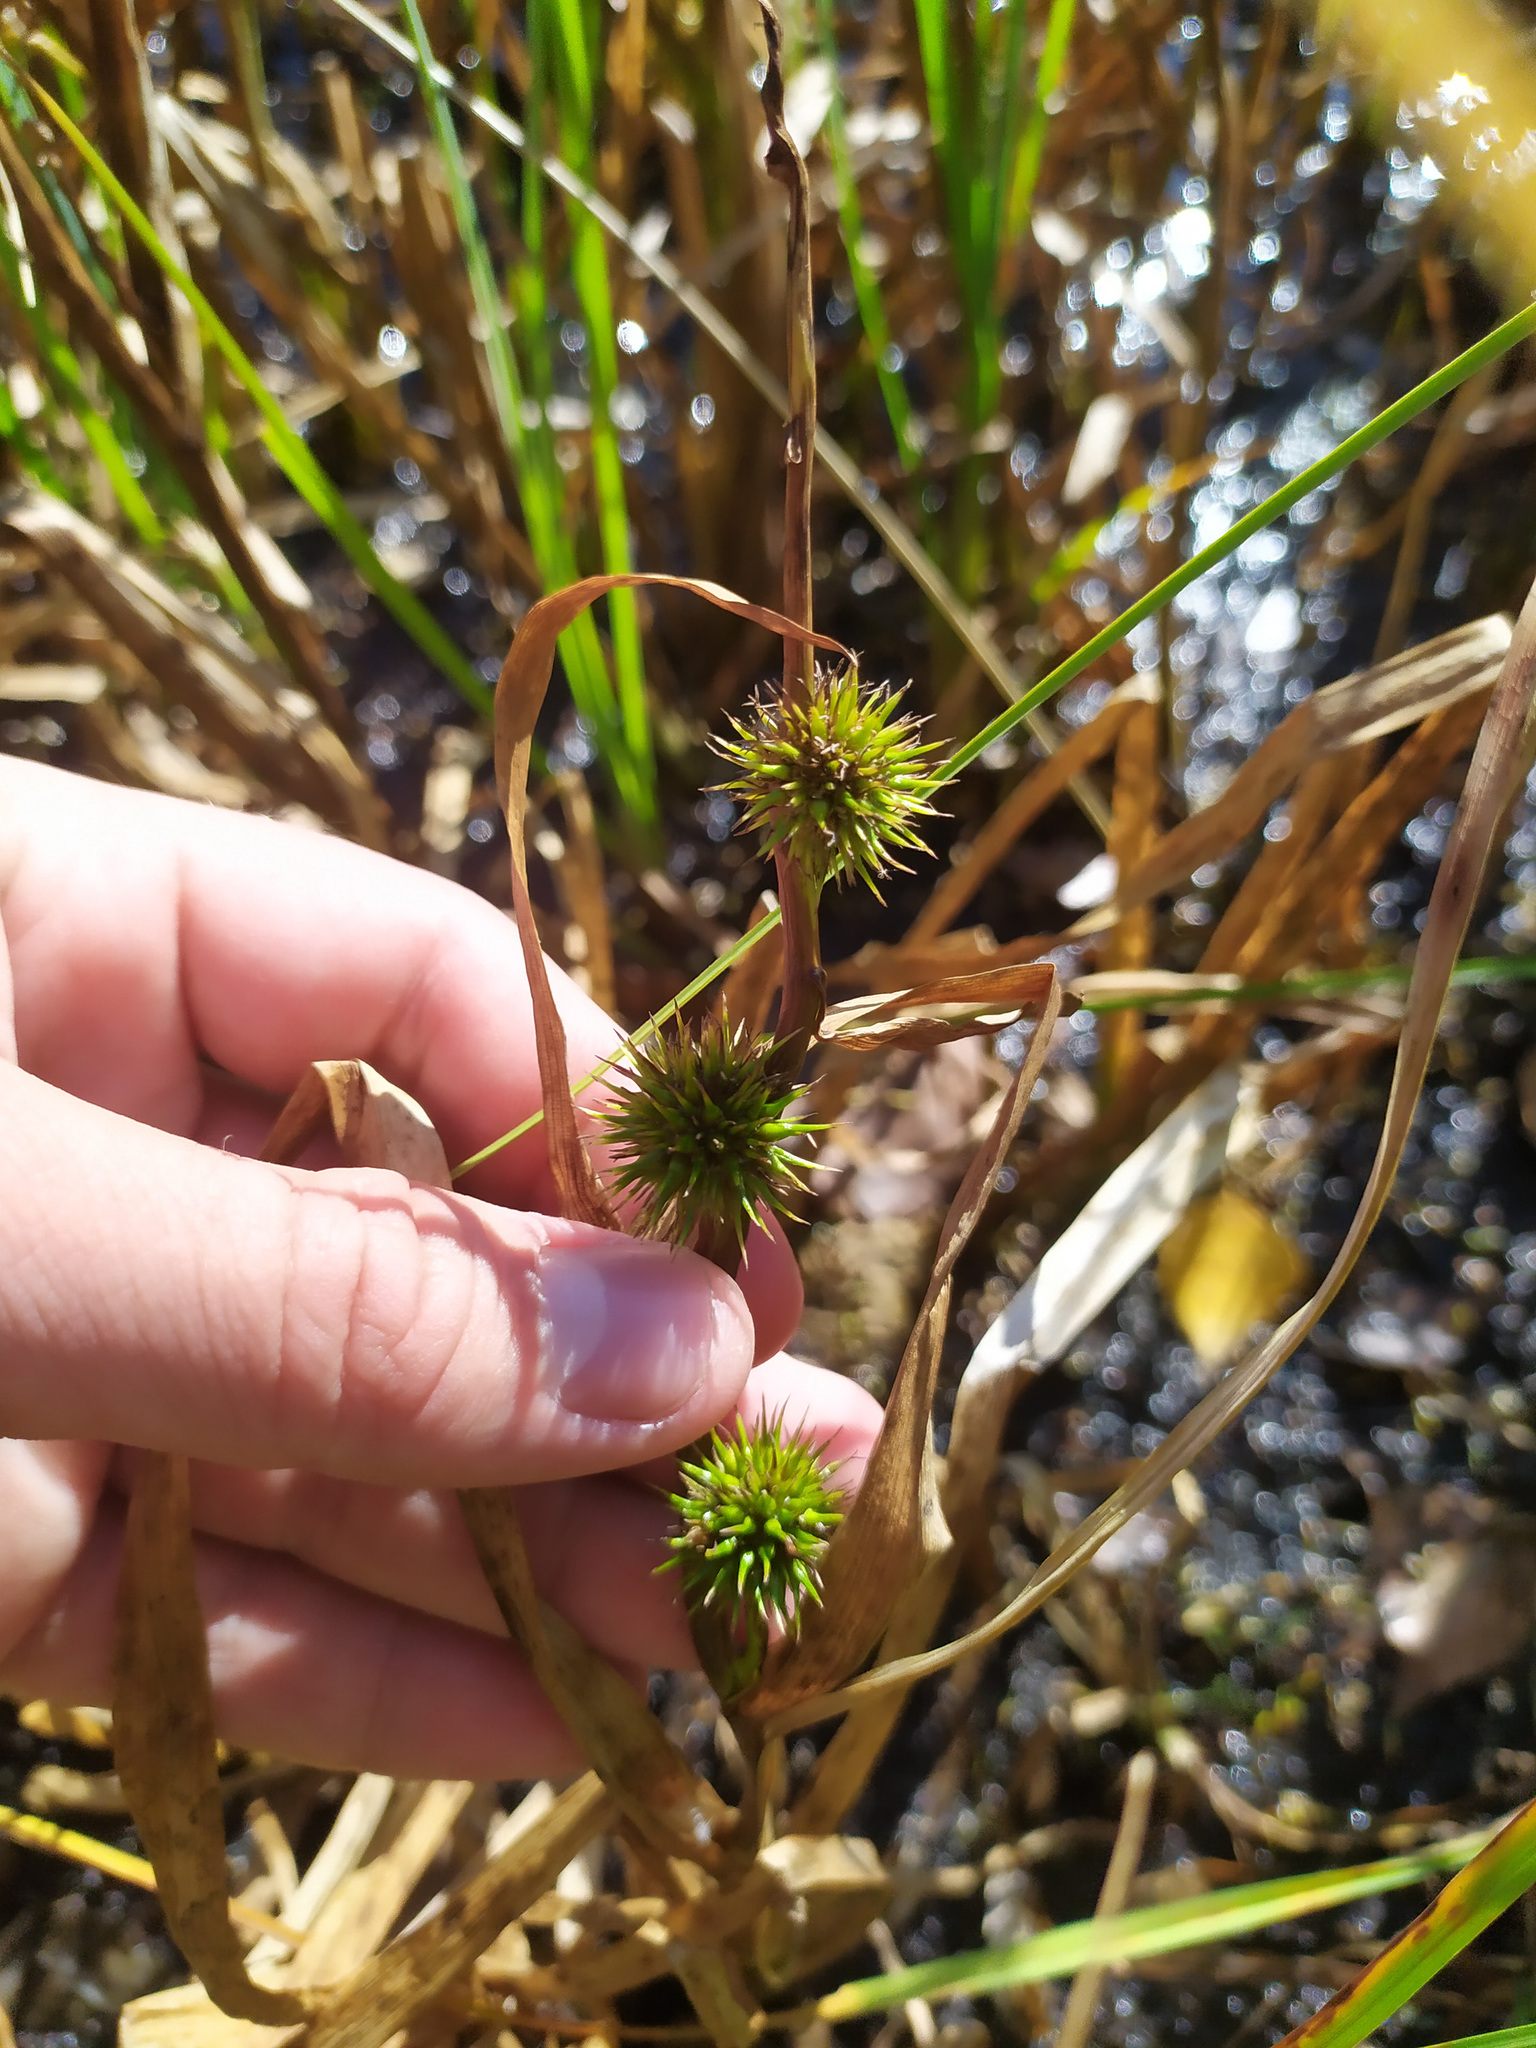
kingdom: Plantae
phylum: Tracheophyta
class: Liliopsida
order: Poales
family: Typhaceae
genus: Sparganium
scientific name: Sparganium emersum
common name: Unbranched bur-reed
